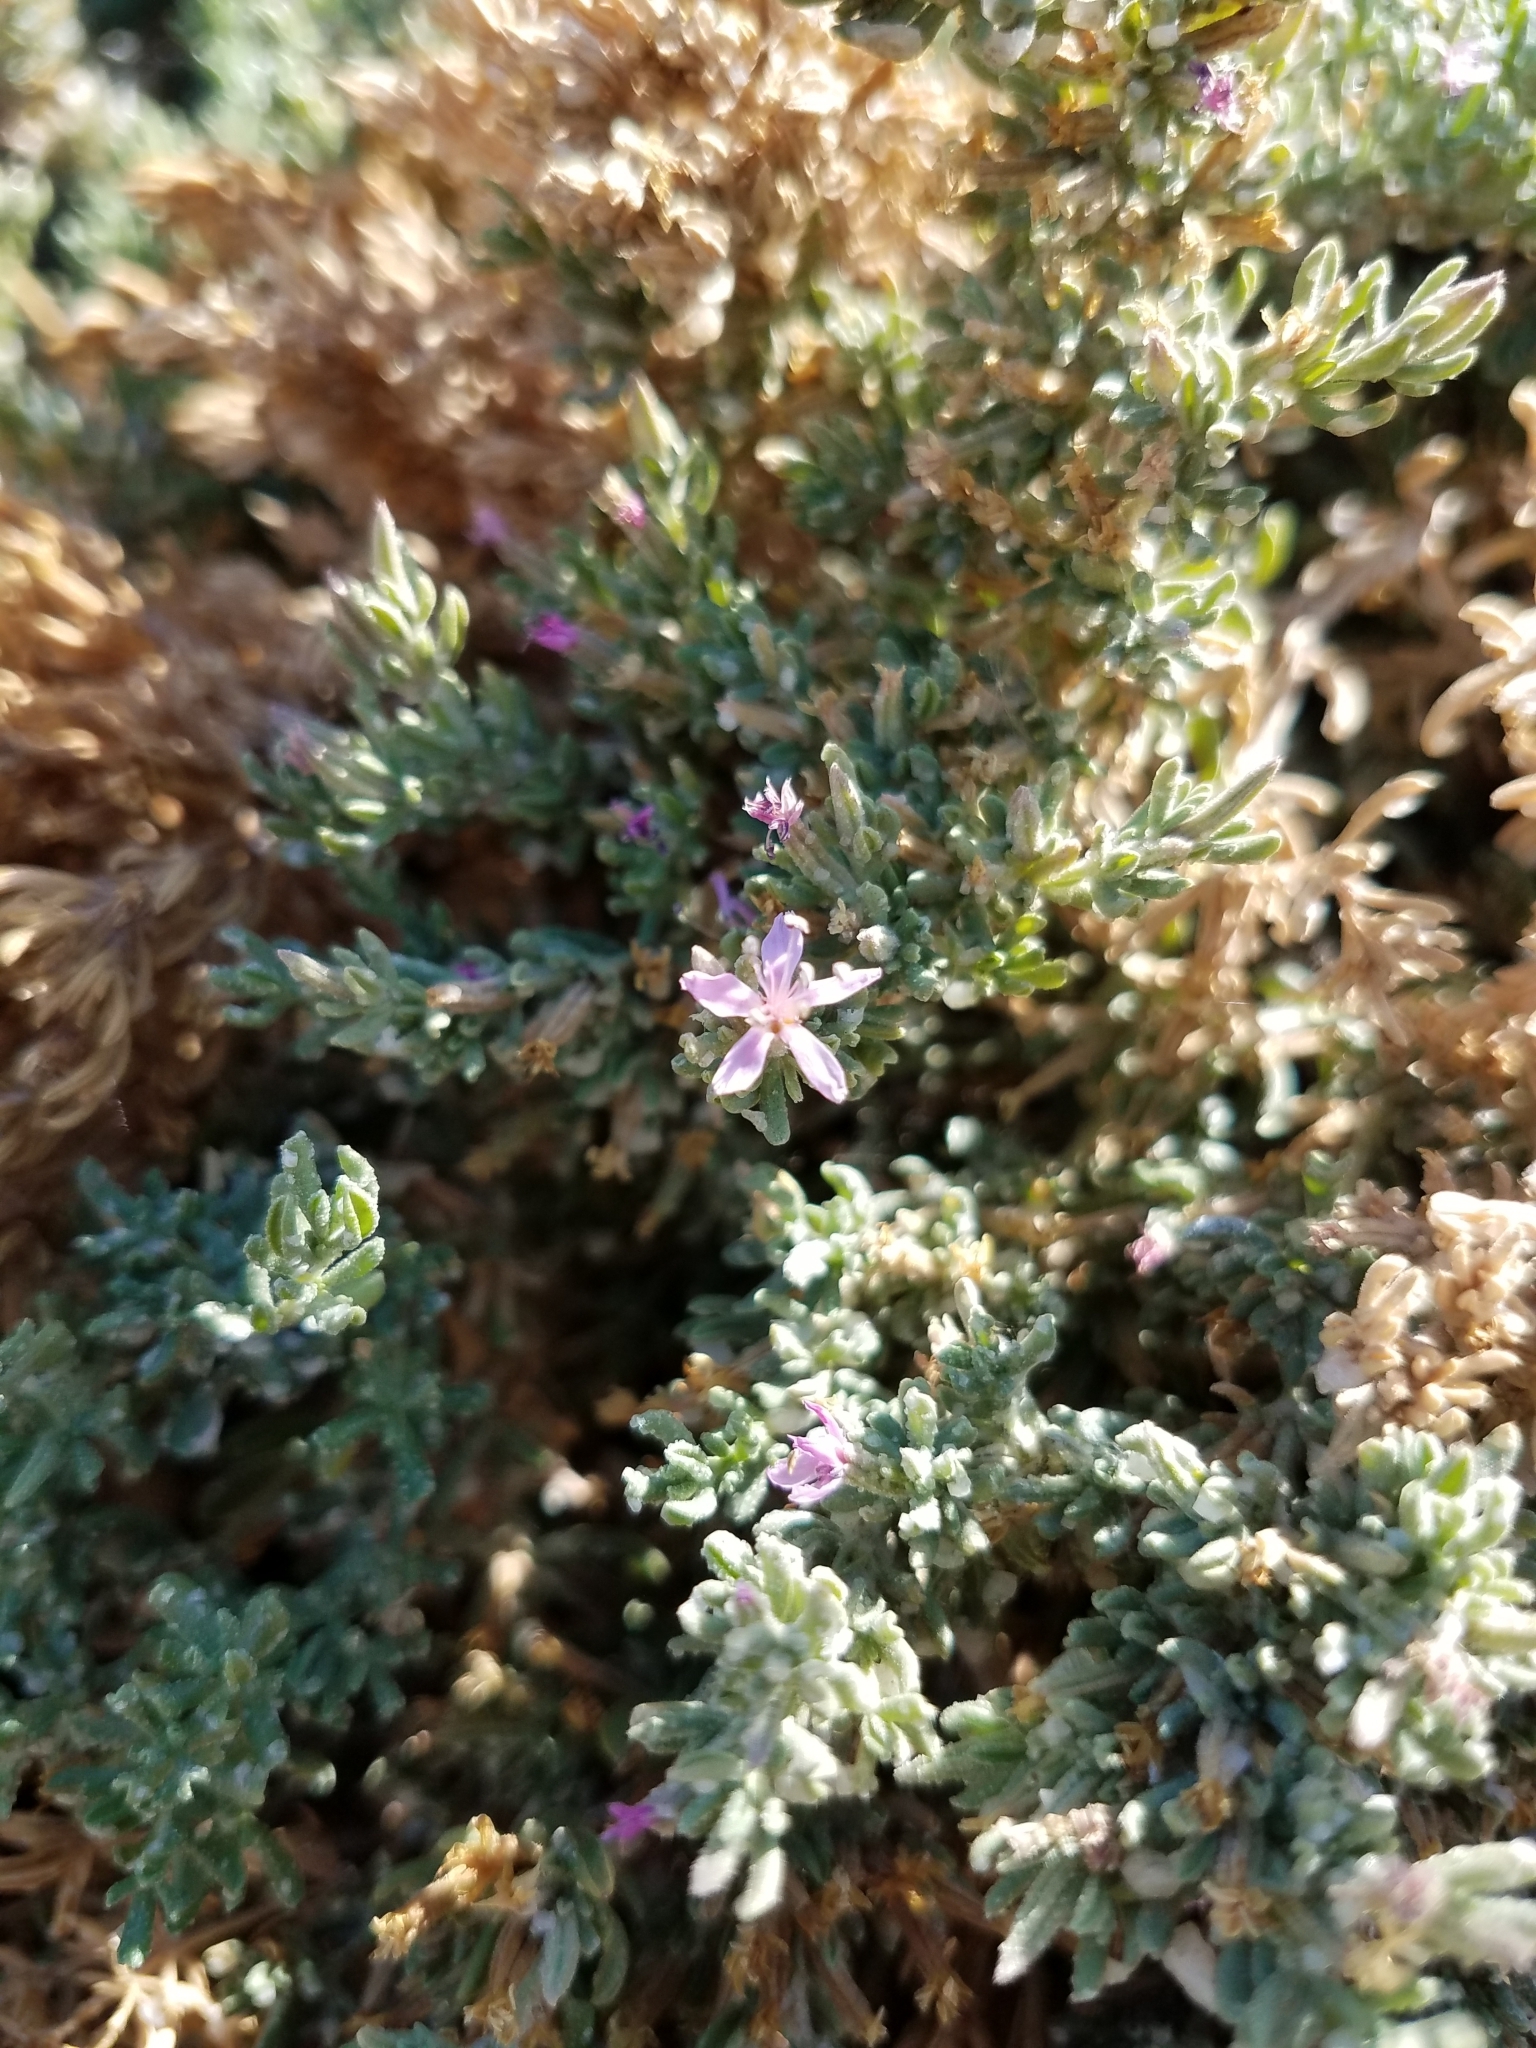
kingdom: Plantae
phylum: Tracheophyta
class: Magnoliopsida
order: Caryophyllales
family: Frankeniaceae
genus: Frankenia
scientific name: Frankenia salina
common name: Alkali seaheath
